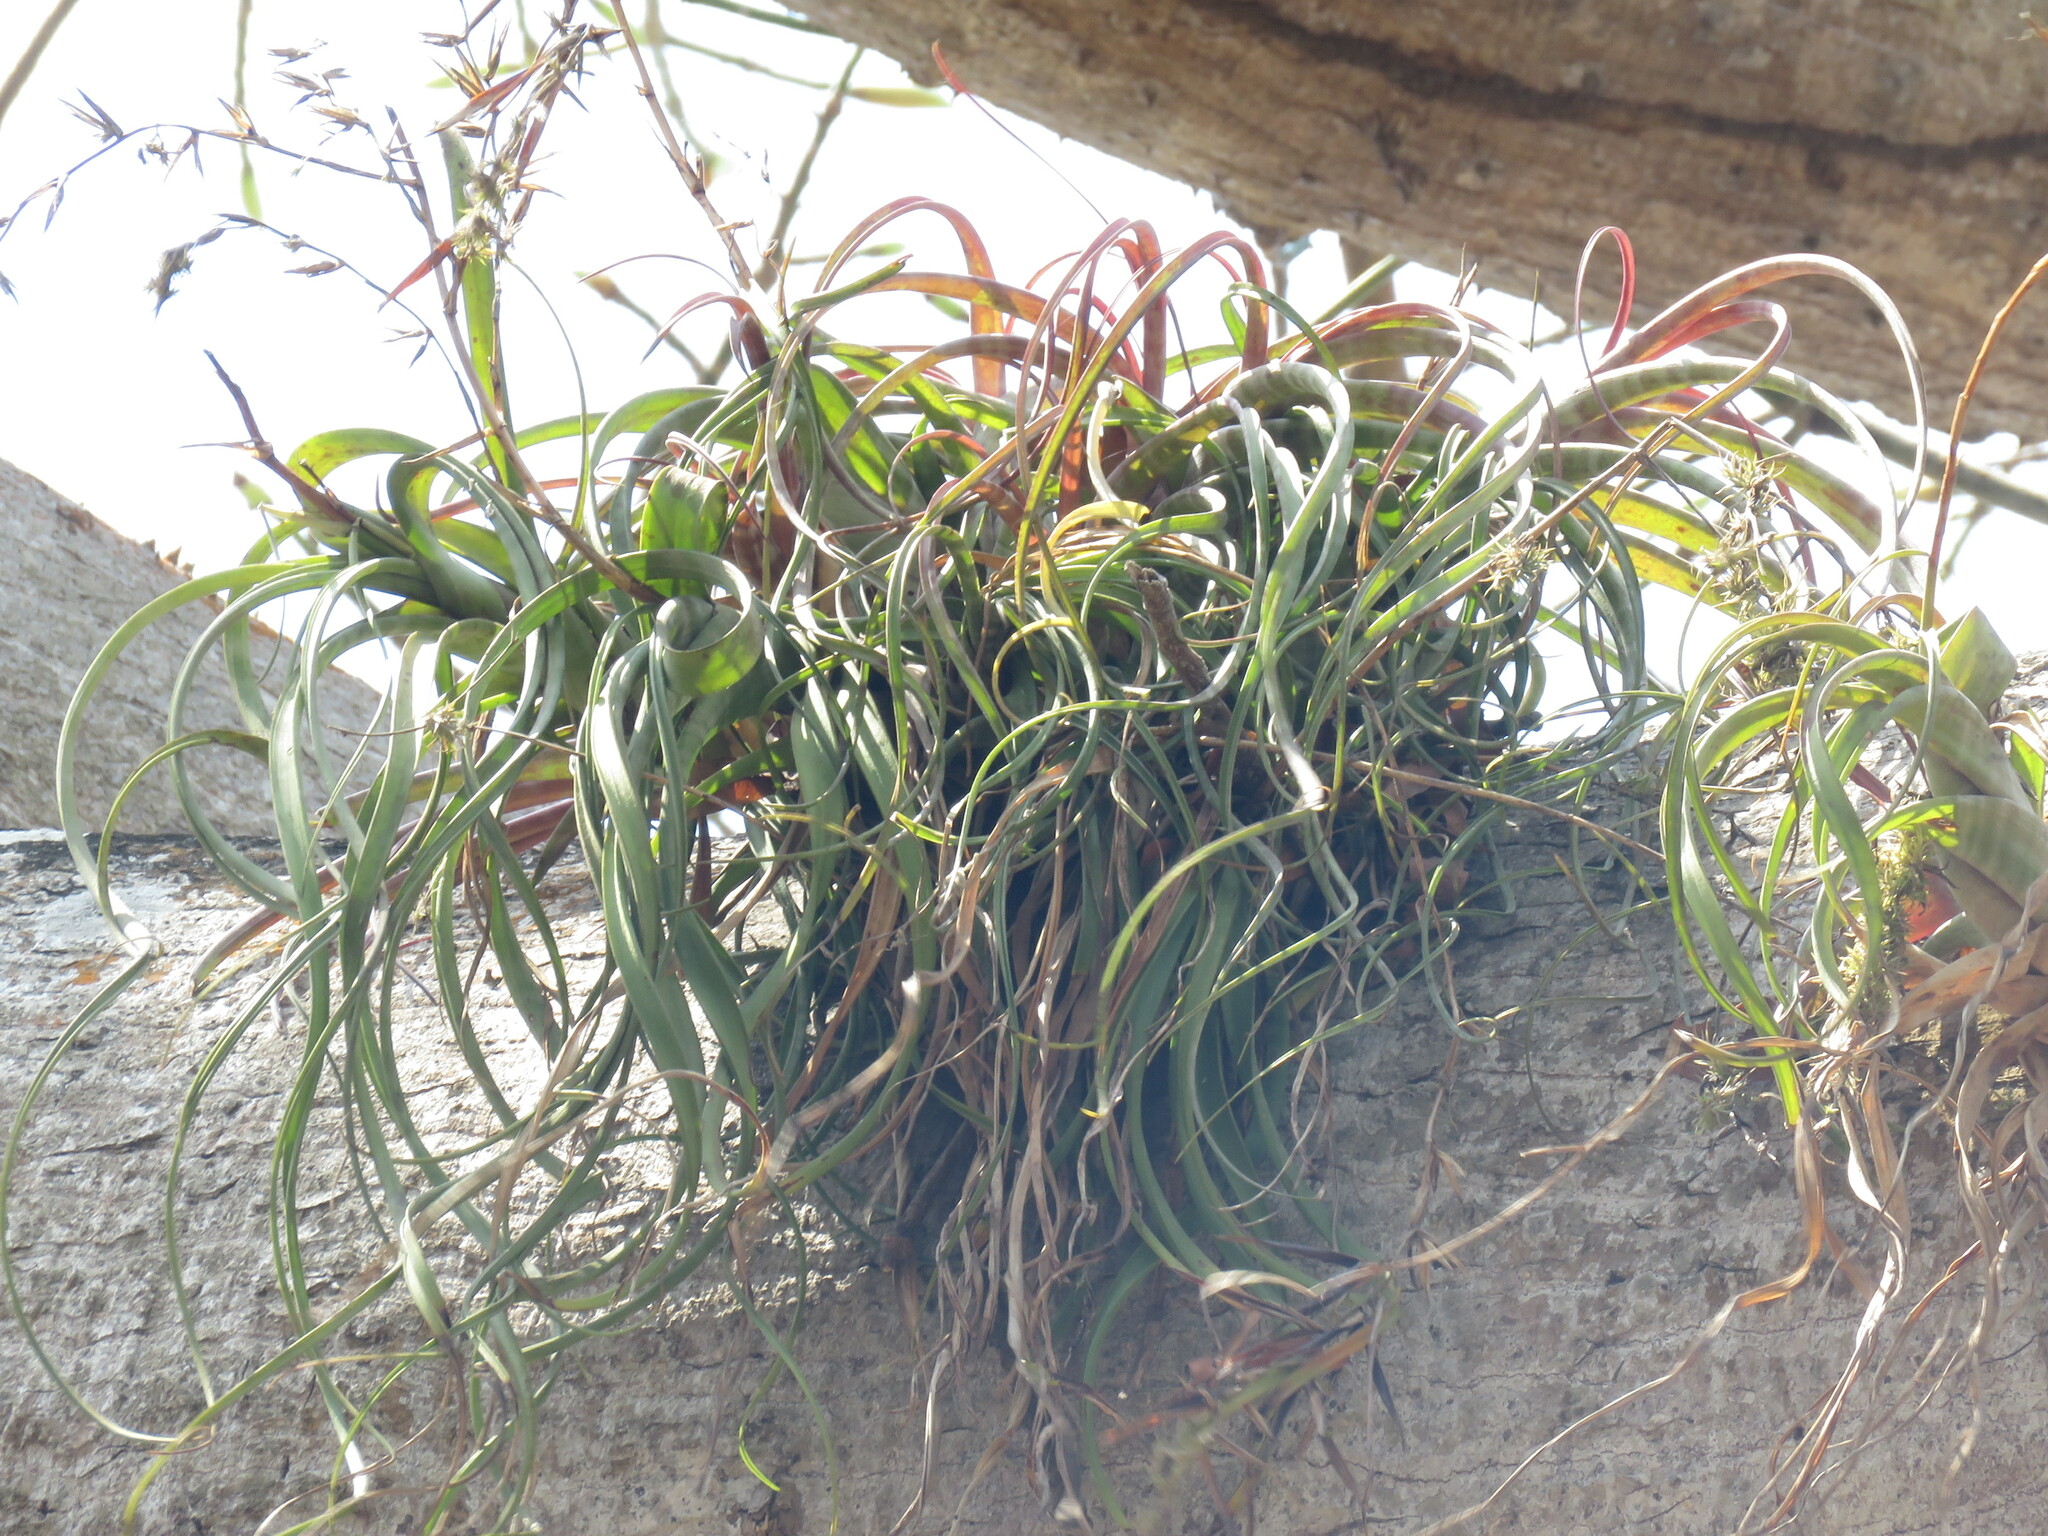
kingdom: Plantae
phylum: Tracheophyta
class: Liliopsida
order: Poales
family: Bromeliaceae
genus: Tillandsia
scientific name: Tillandsia flexuosa
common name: Banded airplant
